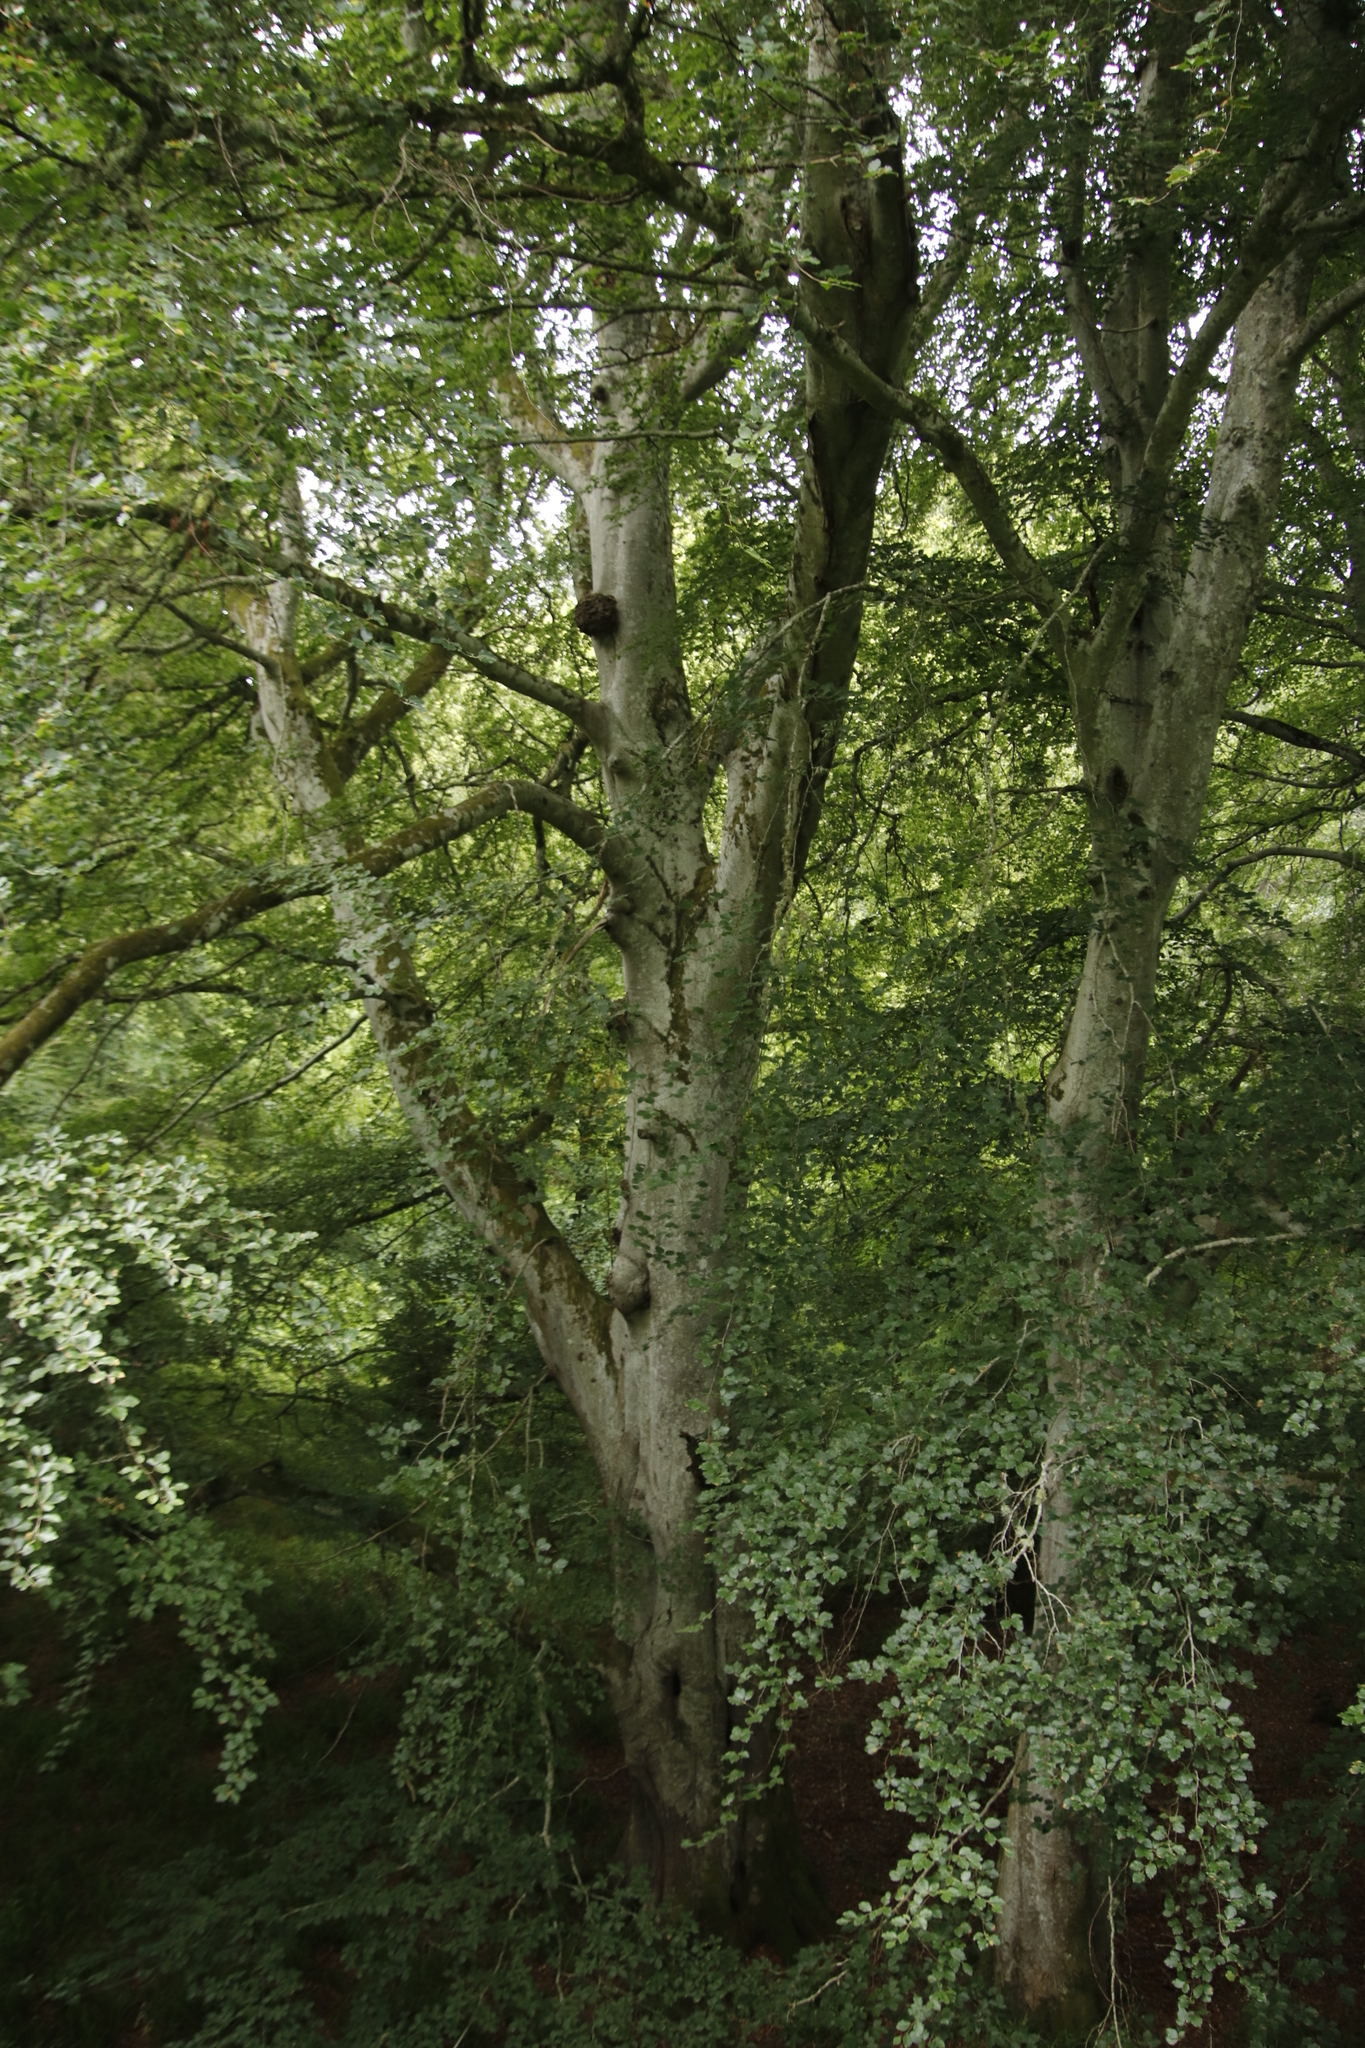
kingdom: Plantae
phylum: Tracheophyta
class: Magnoliopsida
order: Fagales
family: Fagaceae
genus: Fagus
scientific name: Fagus sylvatica
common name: Beech
